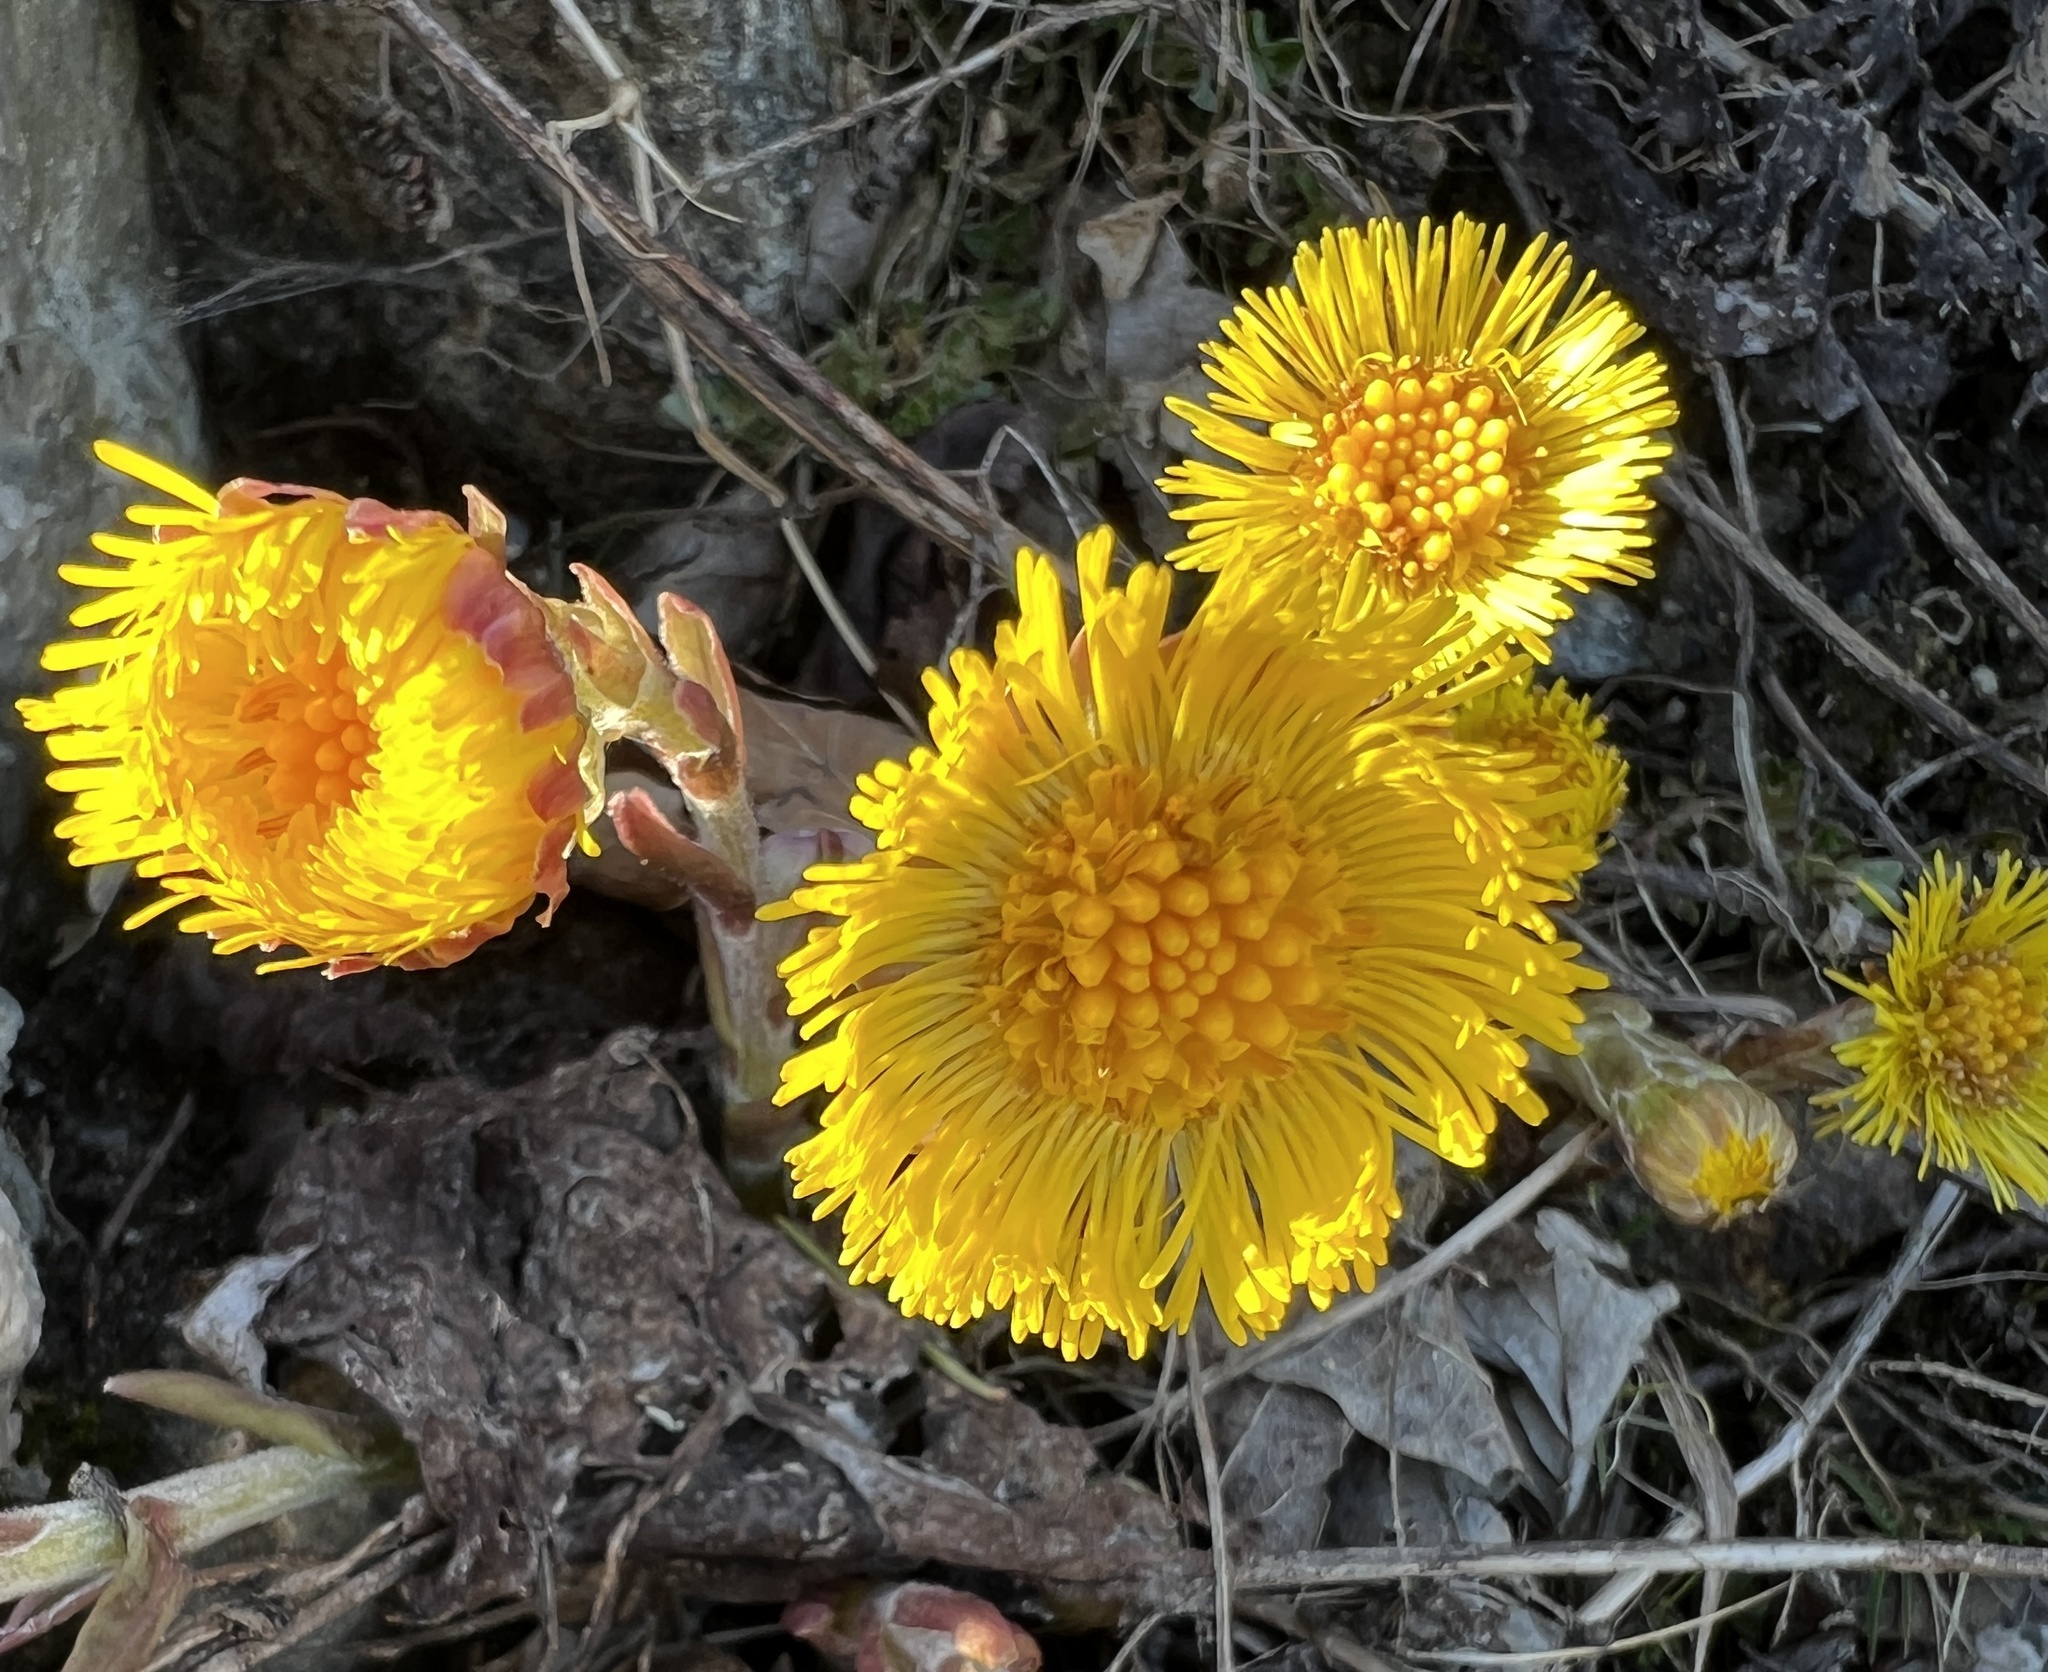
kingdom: Plantae
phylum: Tracheophyta
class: Magnoliopsida
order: Asterales
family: Asteraceae
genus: Tussilago
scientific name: Tussilago farfara
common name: Coltsfoot
